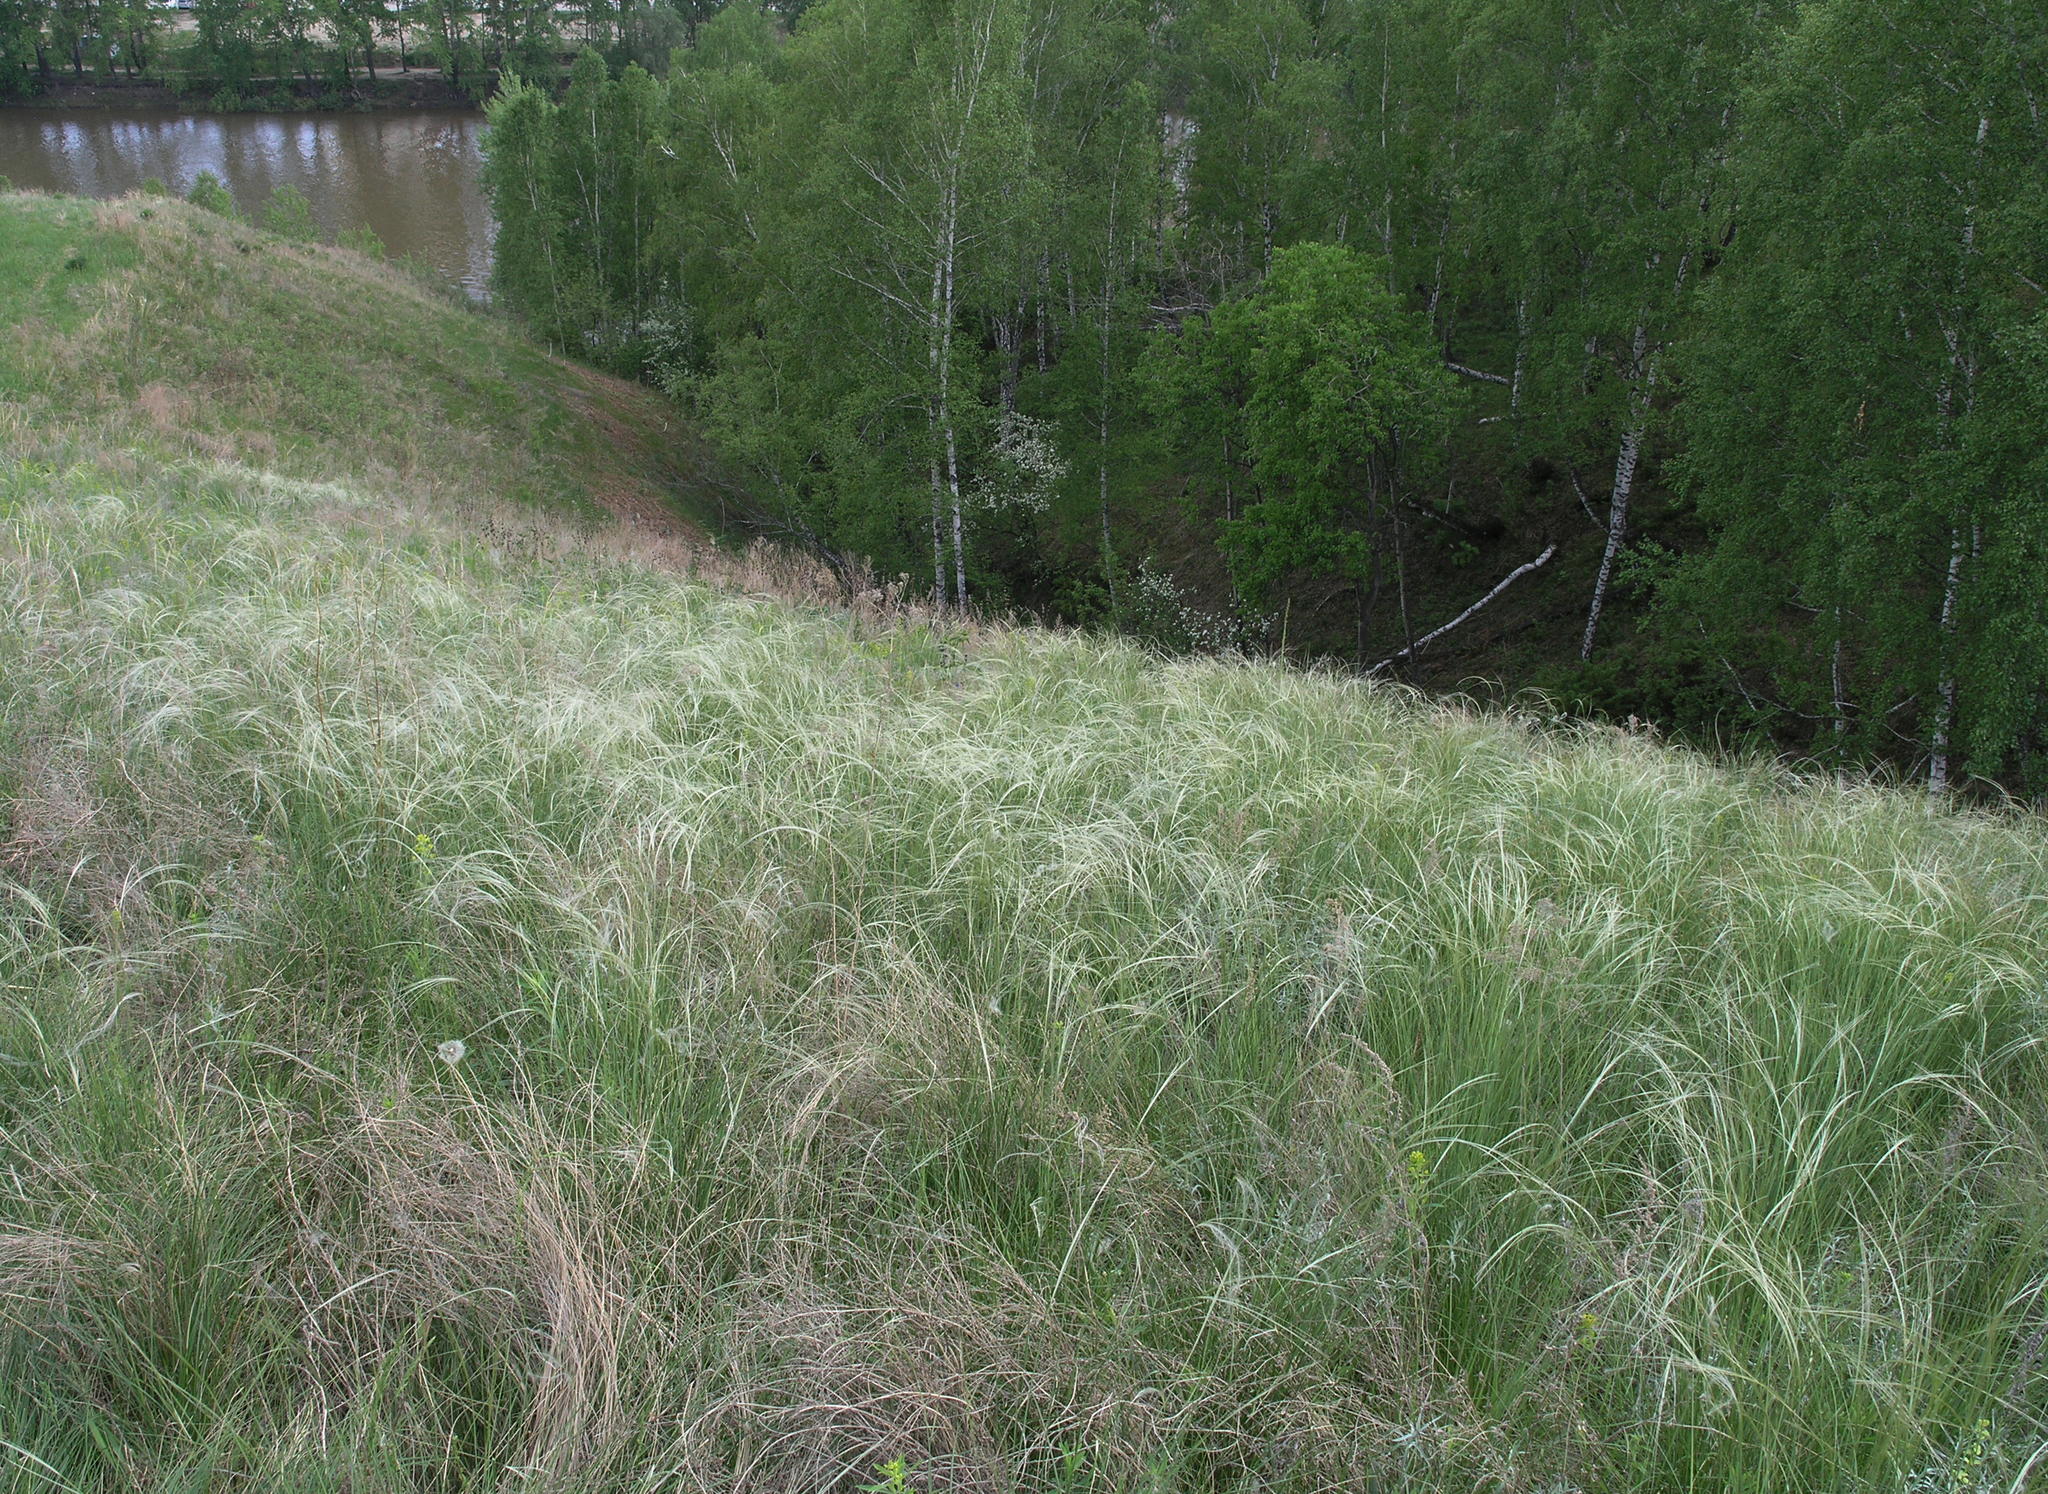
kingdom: Plantae
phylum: Tracheophyta
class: Liliopsida
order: Poales
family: Poaceae
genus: Stipa
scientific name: Stipa pennata
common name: European feather grass
